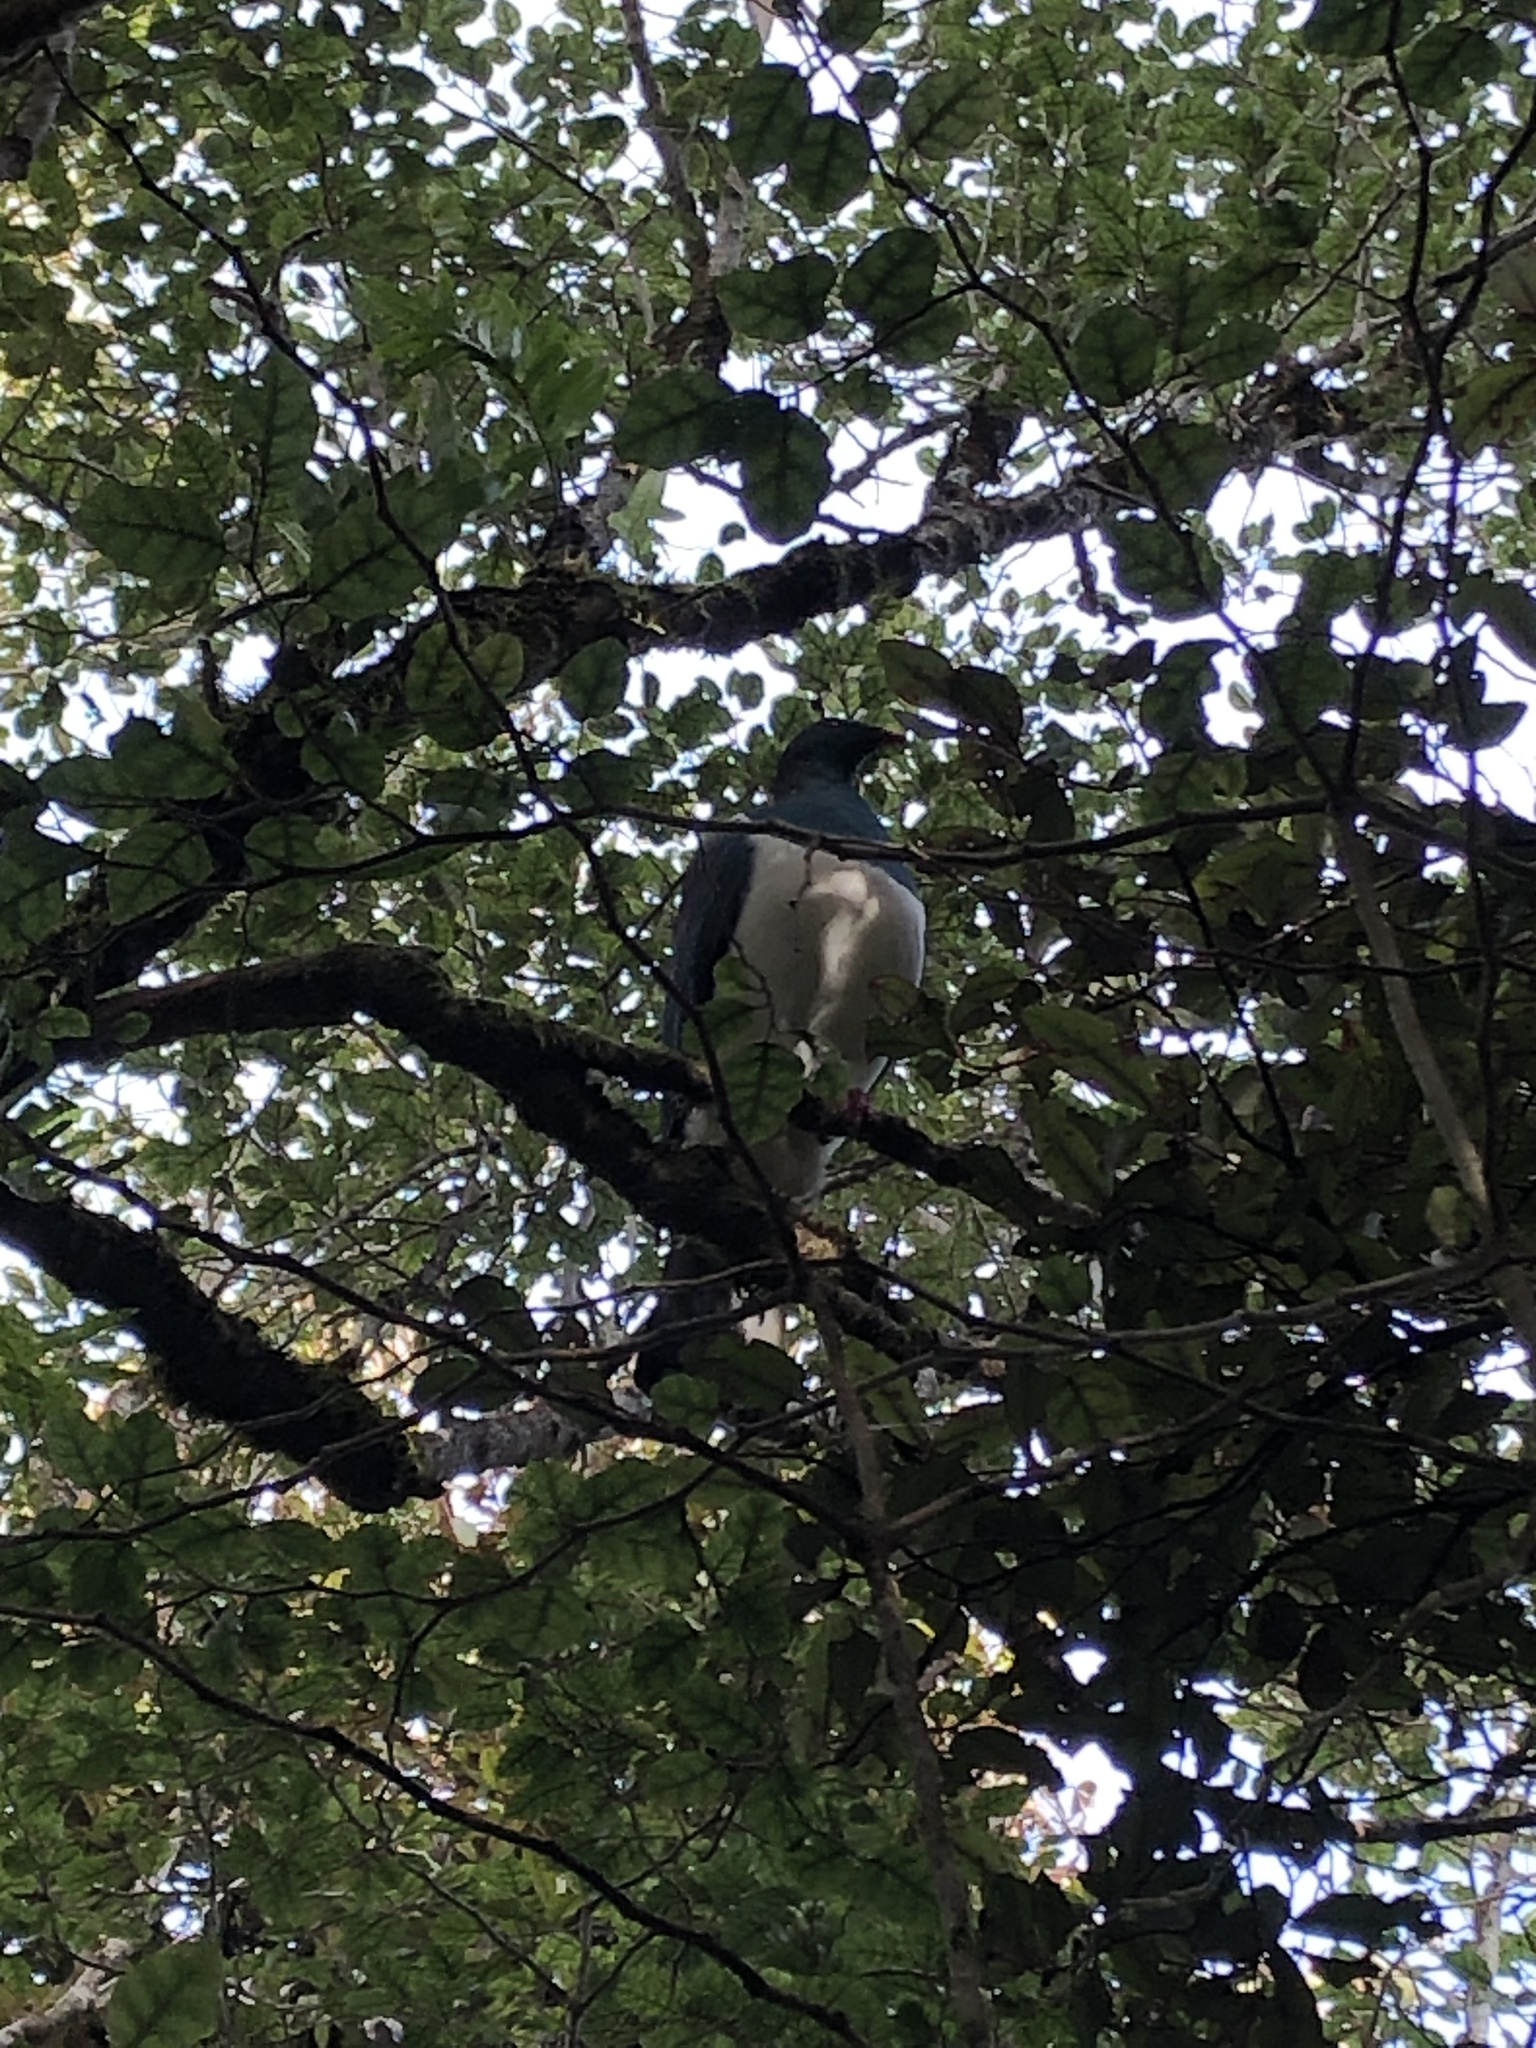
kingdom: Animalia
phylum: Chordata
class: Aves
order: Columbiformes
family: Columbidae
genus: Hemiphaga
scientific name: Hemiphaga novaeseelandiae
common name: New zealand pigeon
